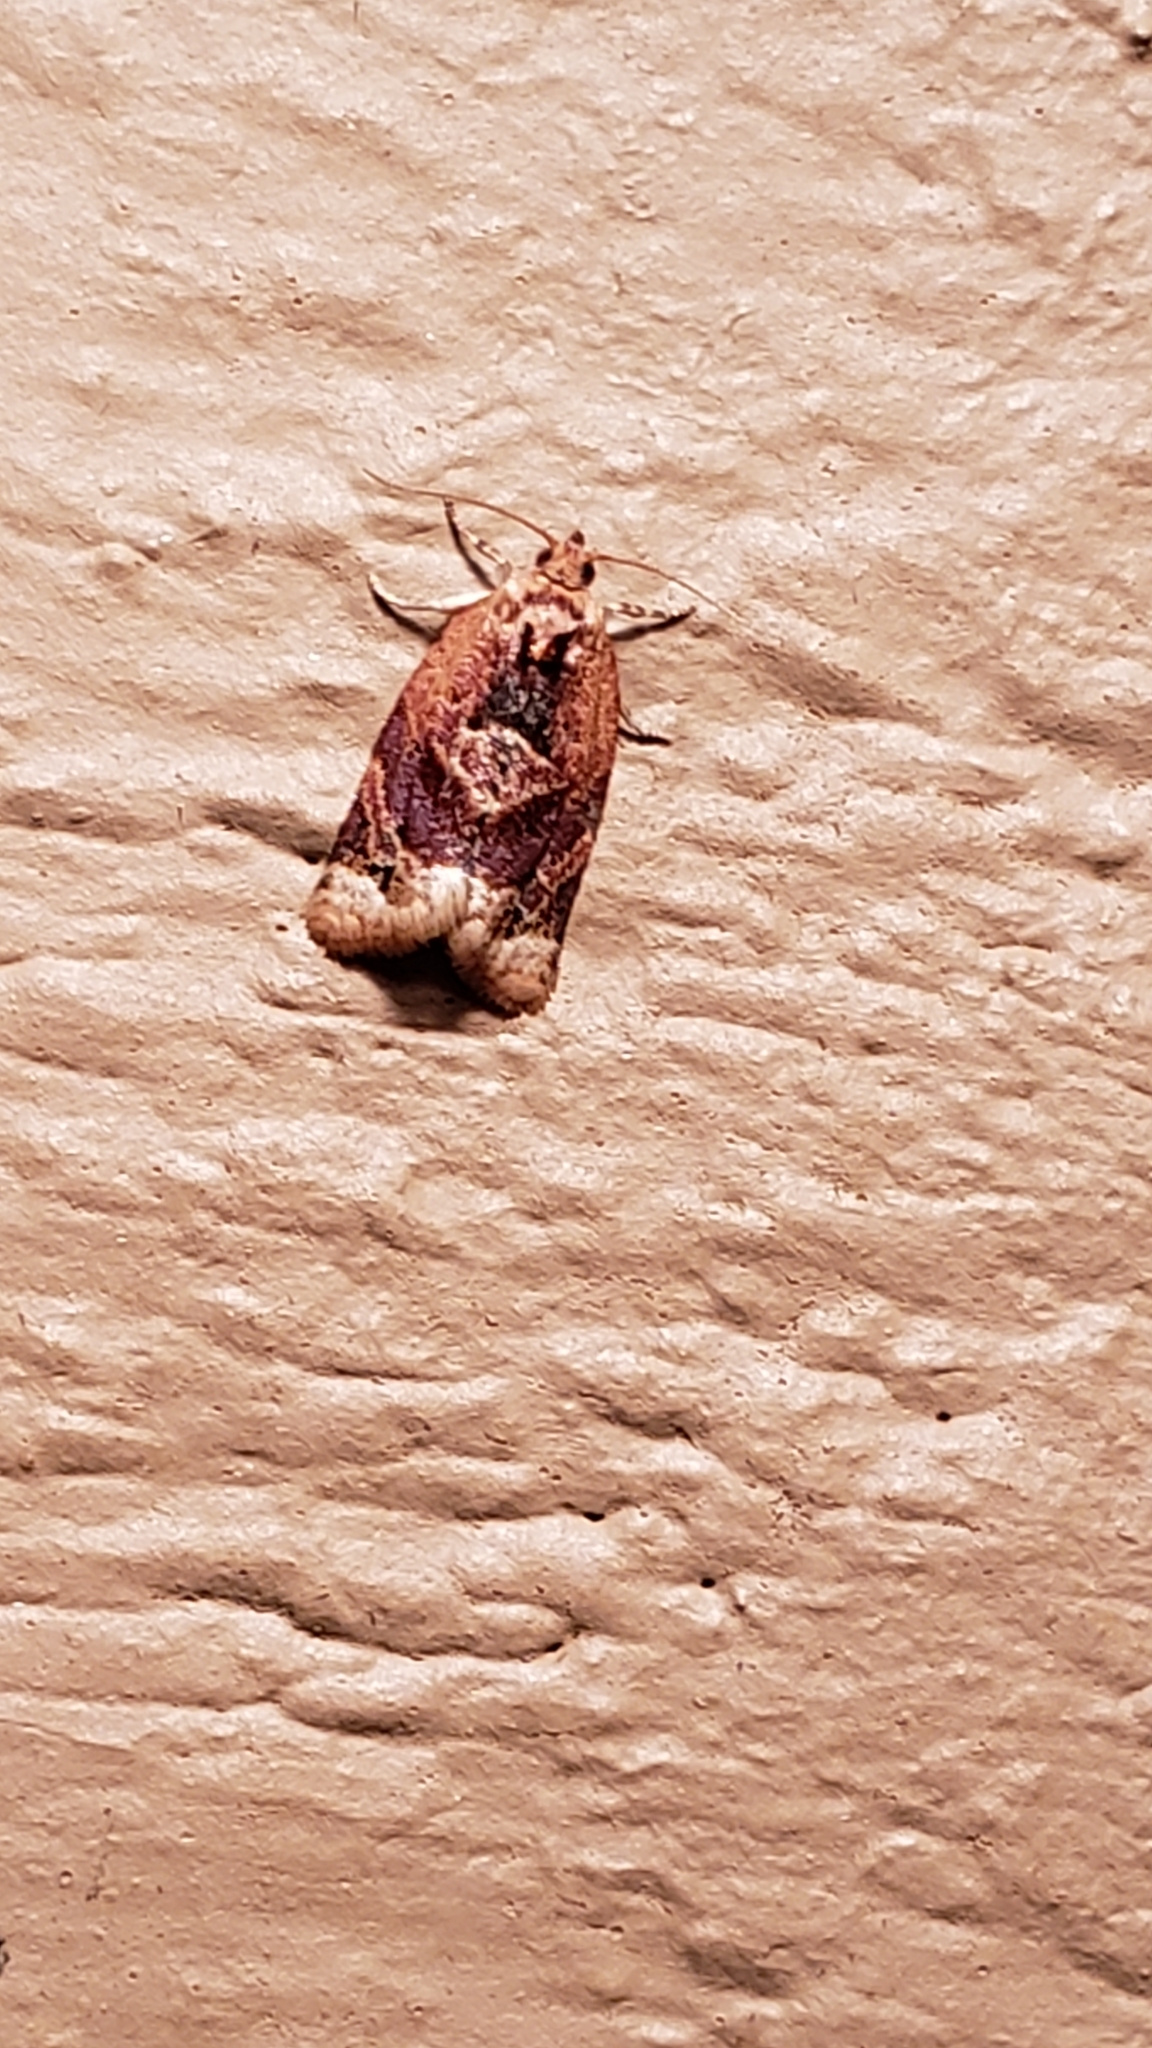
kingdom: Animalia
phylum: Arthropoda
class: Insecta
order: Lepidoptera
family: Tortricidae
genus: Argyrotaenia
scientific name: Argyrotaenia velutinana
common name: Red-banded leafroller moth
